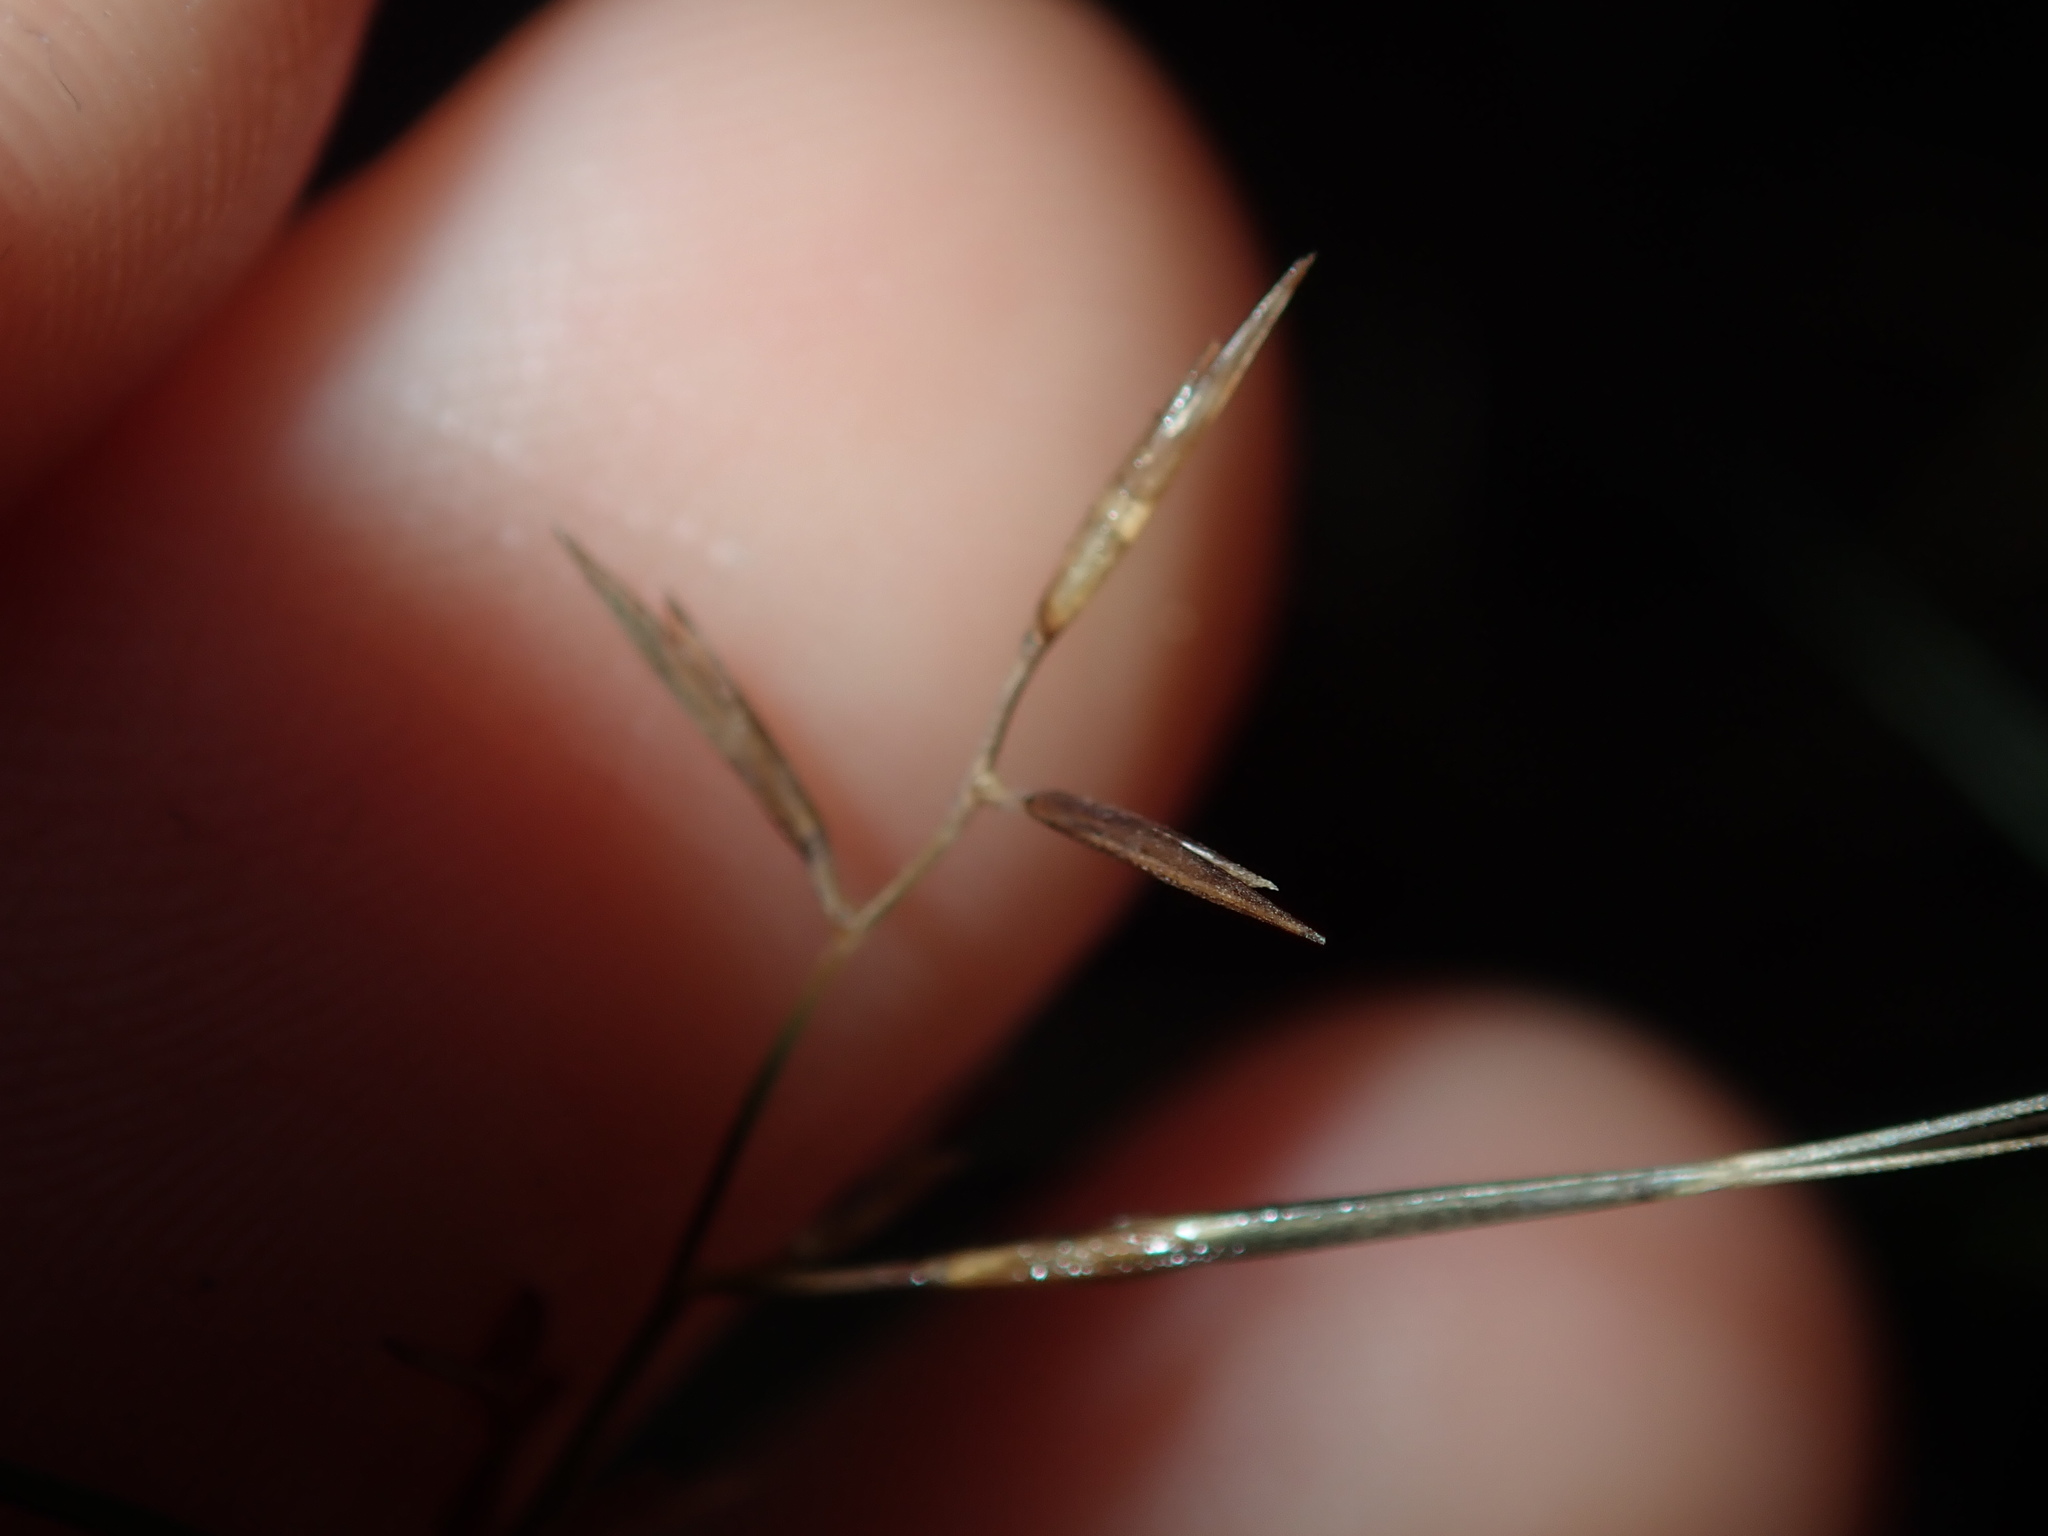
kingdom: Plantae
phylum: Tracheophyta
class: Liliopsida
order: Poales
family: Poaceae
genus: Aristida
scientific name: Aristida vagans
